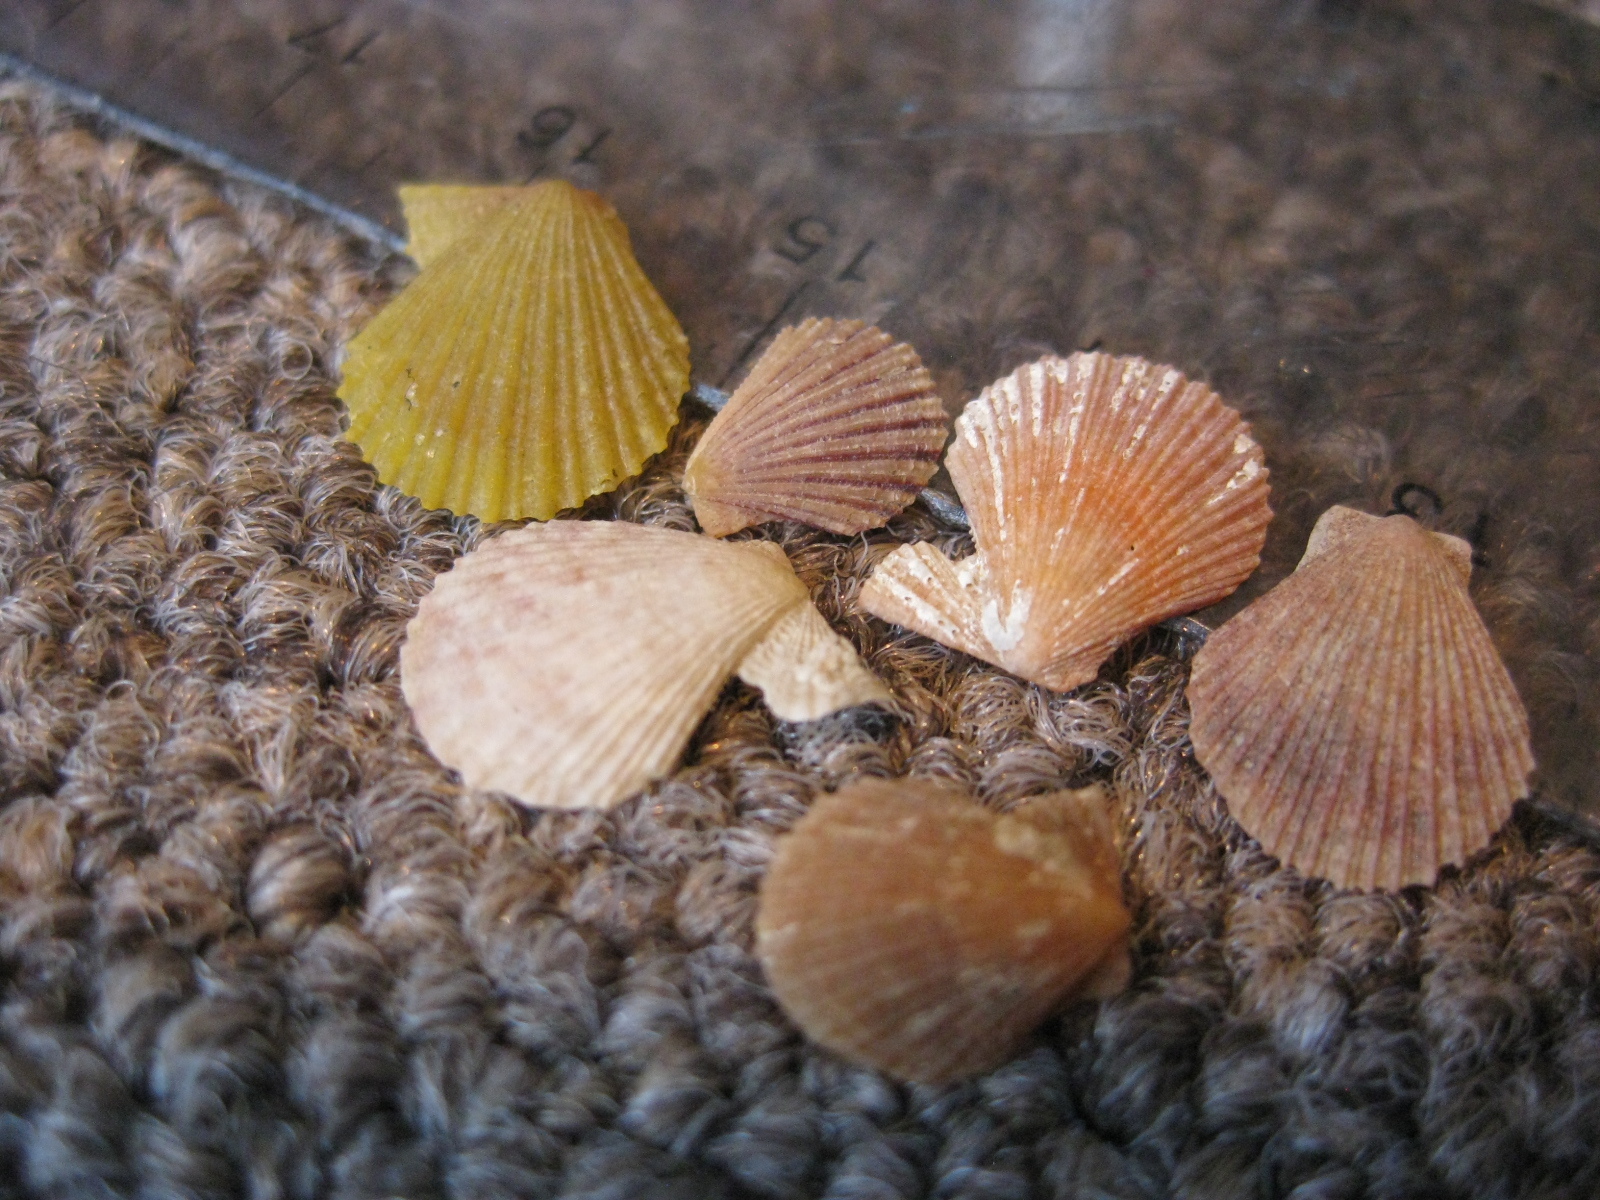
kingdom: Animalia
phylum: Mollusca
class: Bivalvia
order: Pectinida
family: Pectinidae
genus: Talochlamys
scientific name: Talochlamys zelandiae
